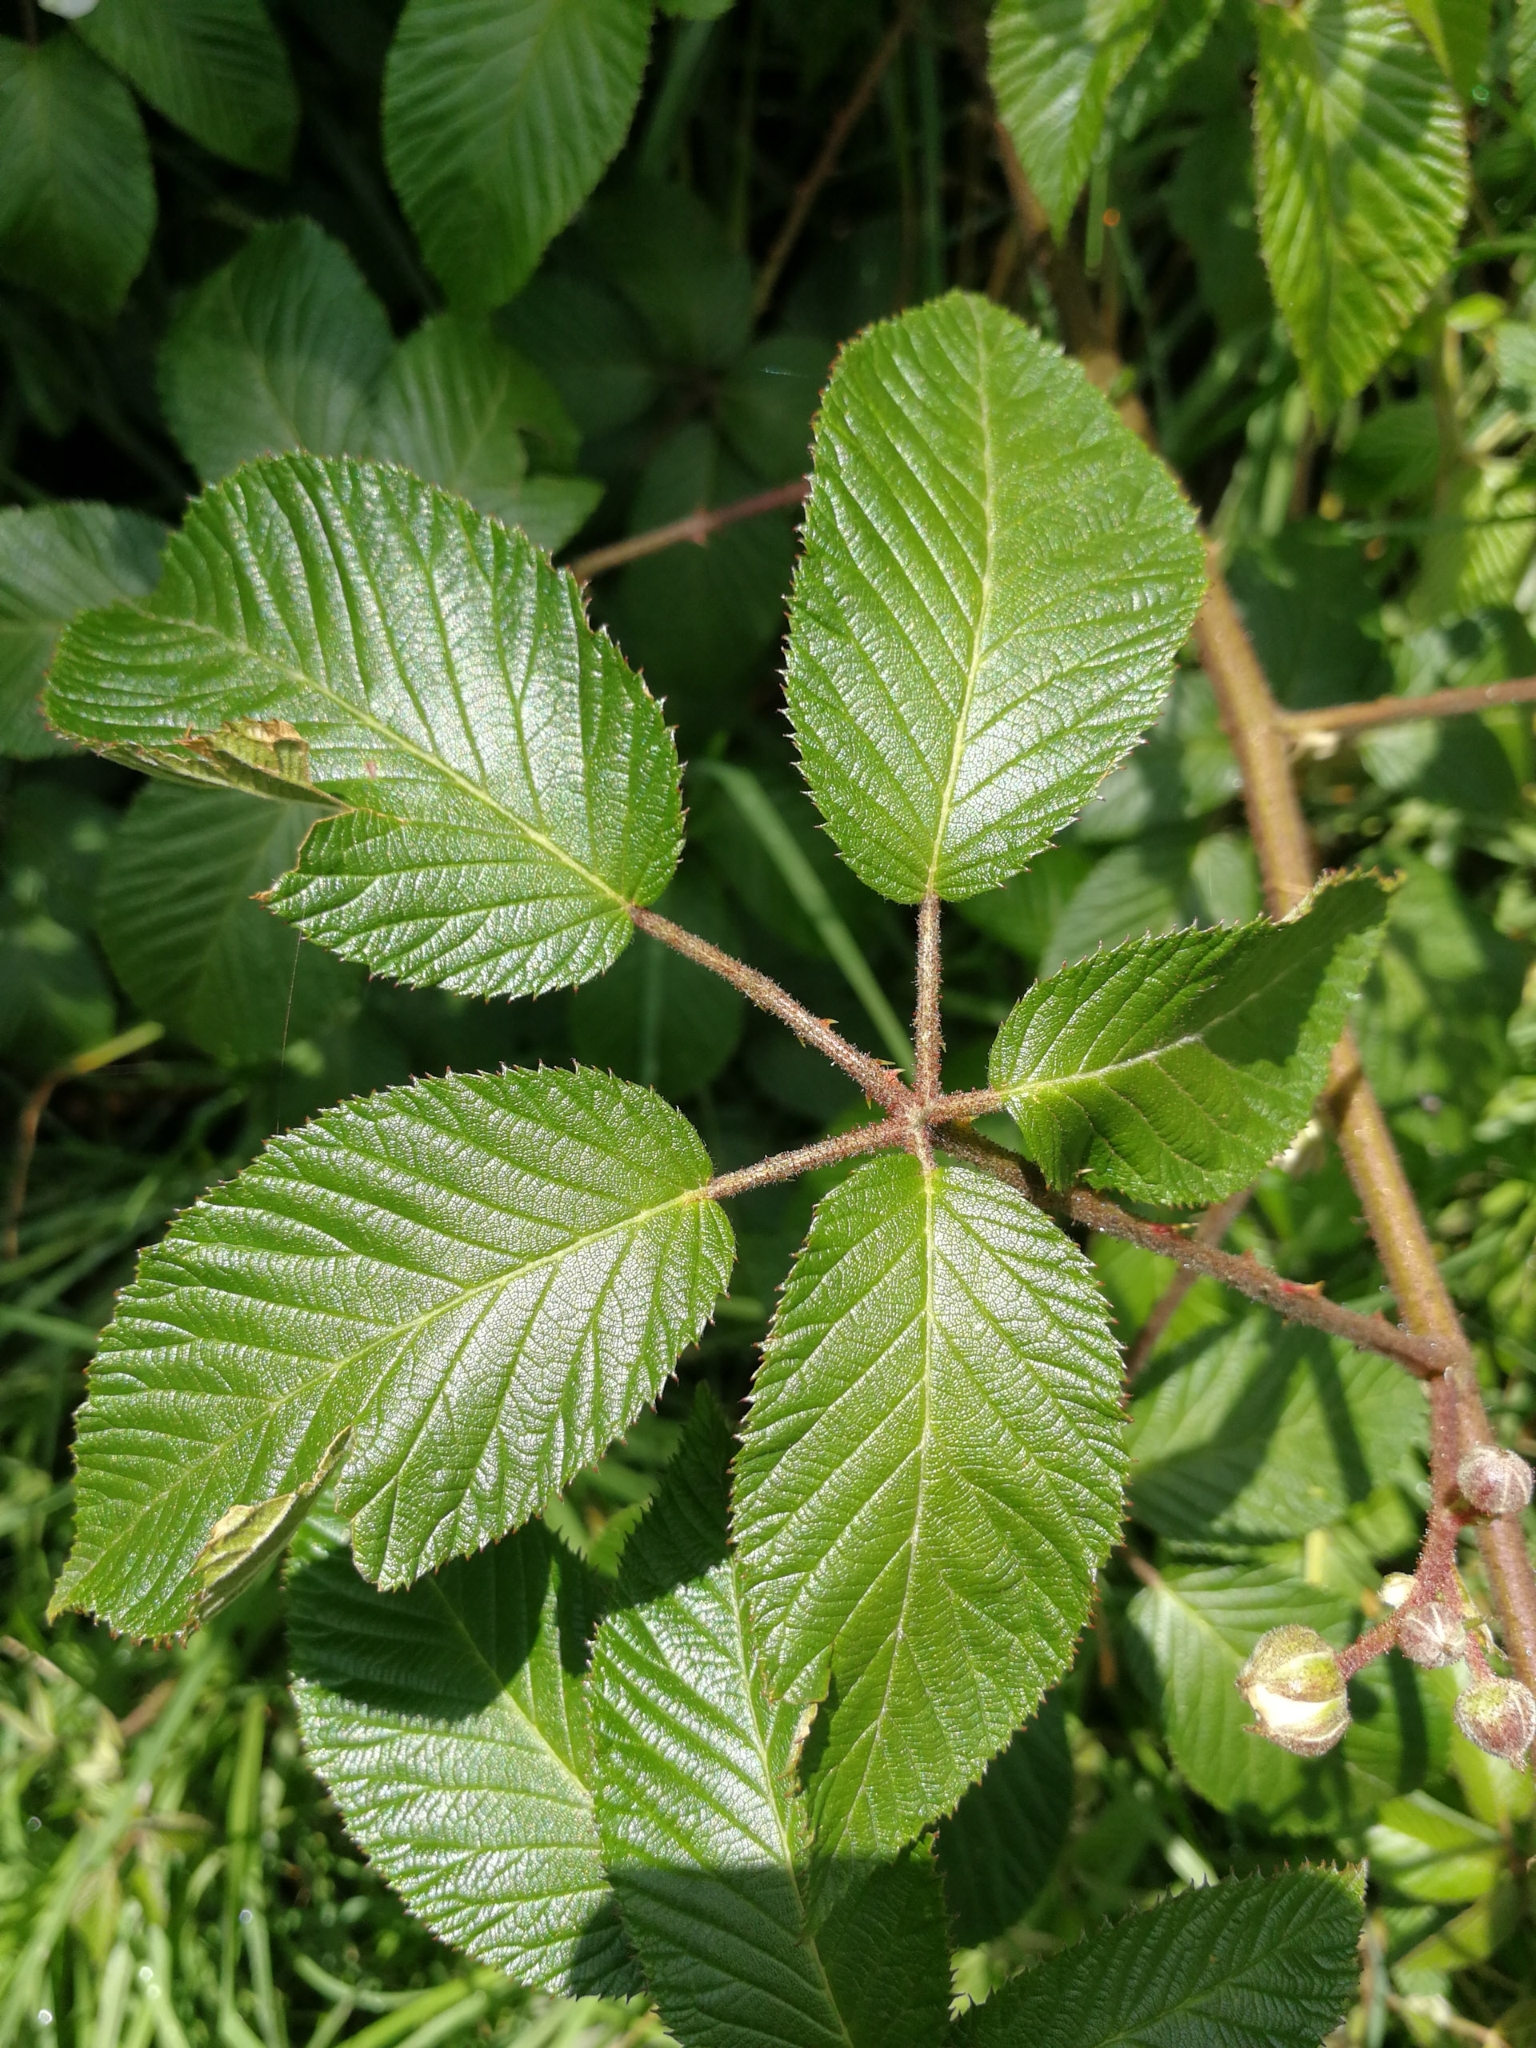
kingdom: Plantae
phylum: Tracheophyta
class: Magnoliopsida
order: Rosales
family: Rosaceae
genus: Rubus
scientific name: Rubus adenotrichos
